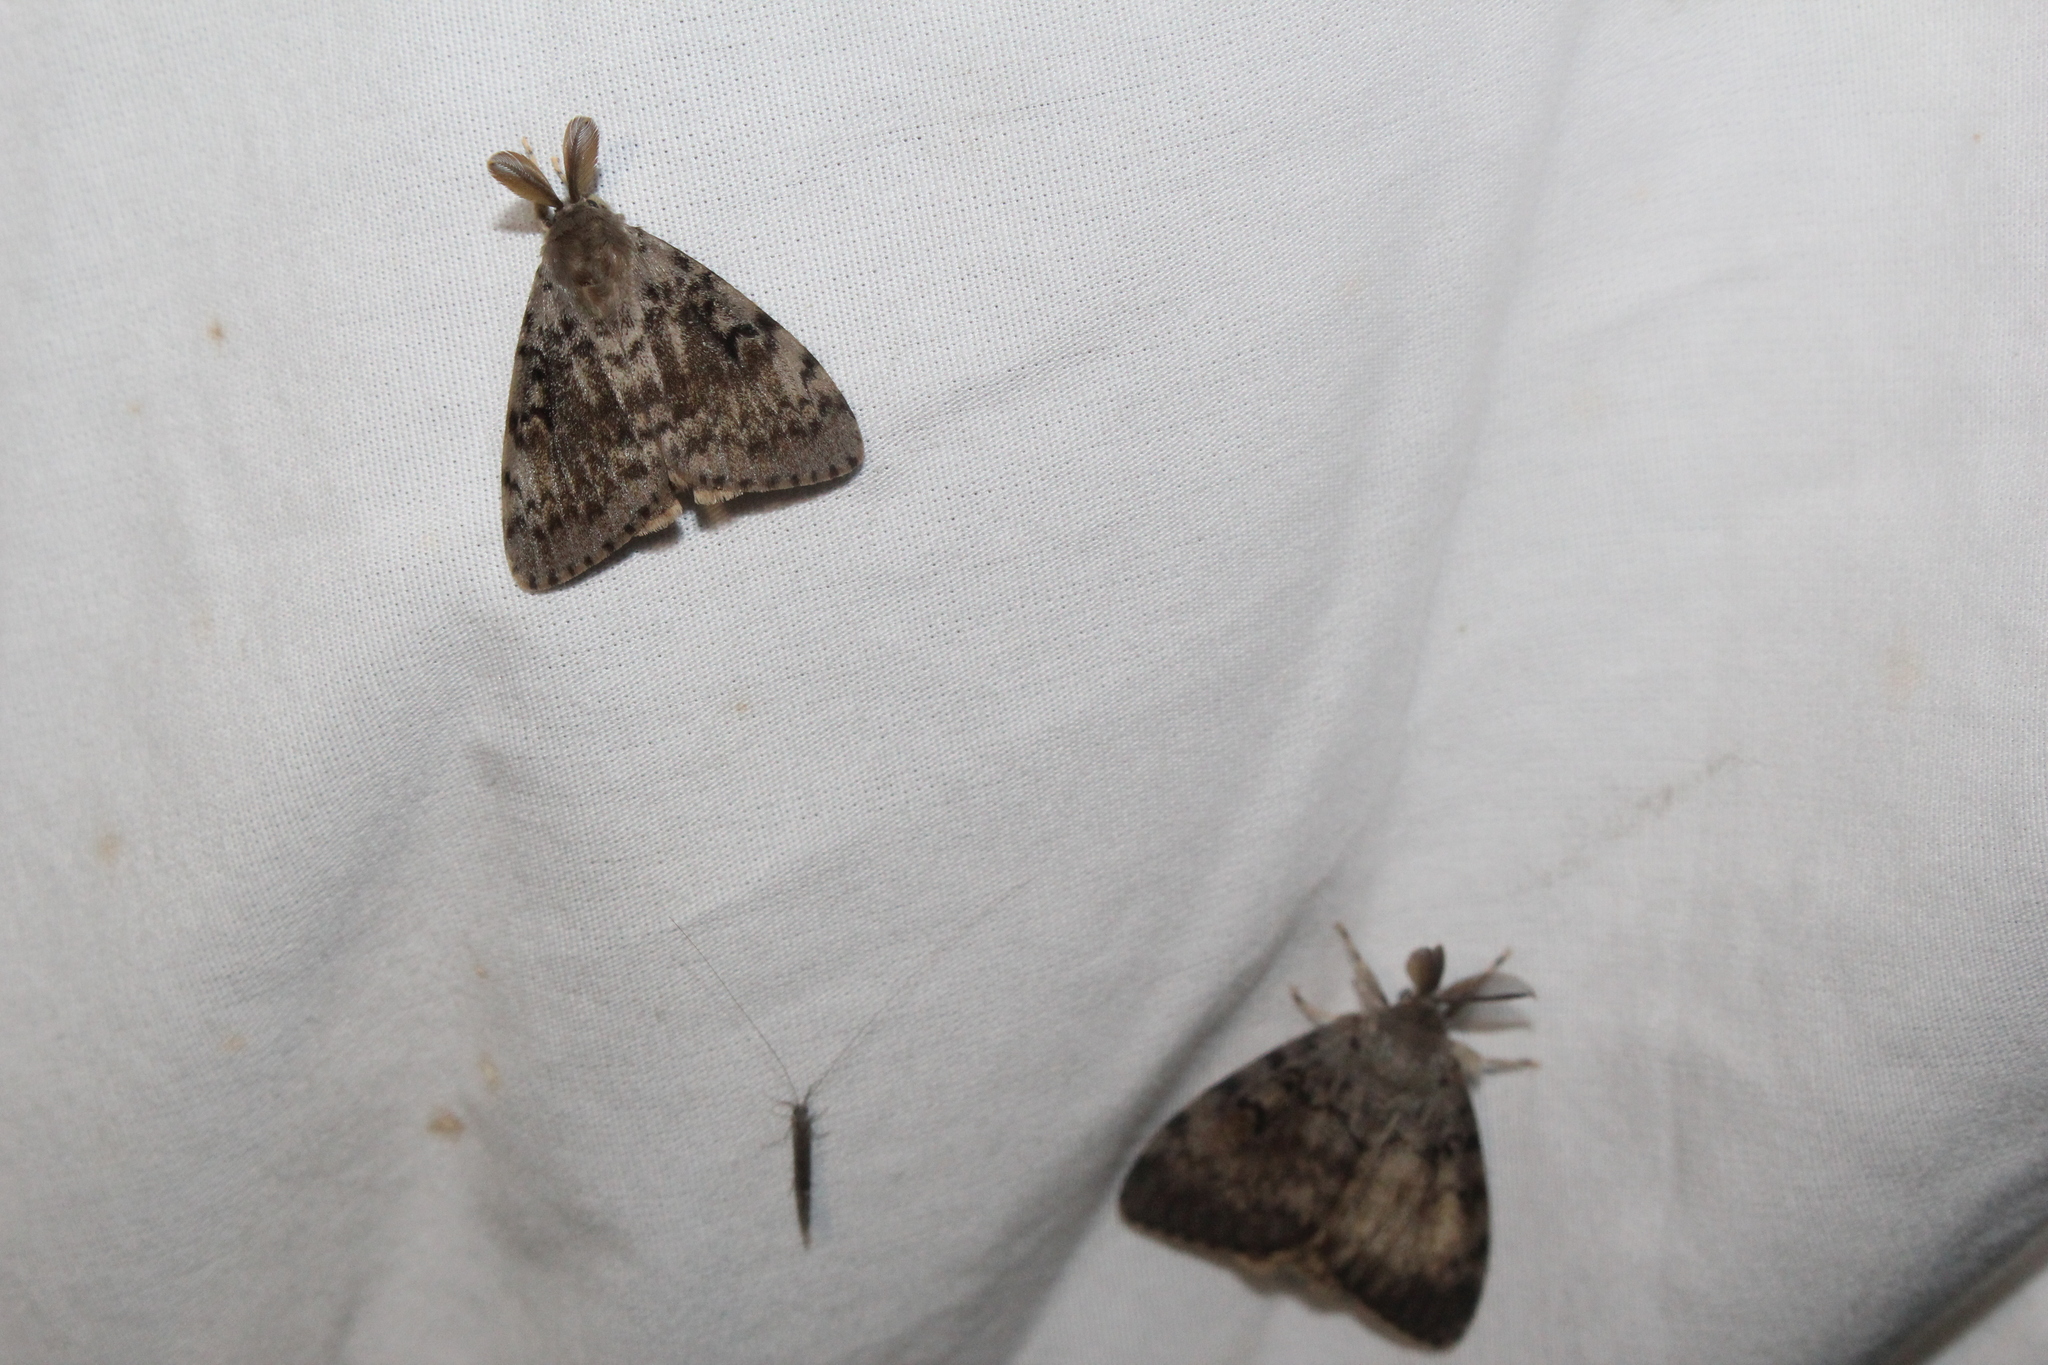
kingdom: Animalia
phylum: Arthropoda
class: Insecta
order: Lepidoptera
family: Erebidae
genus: Lymantria
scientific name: Lymantria dispar
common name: Gypsy moth
